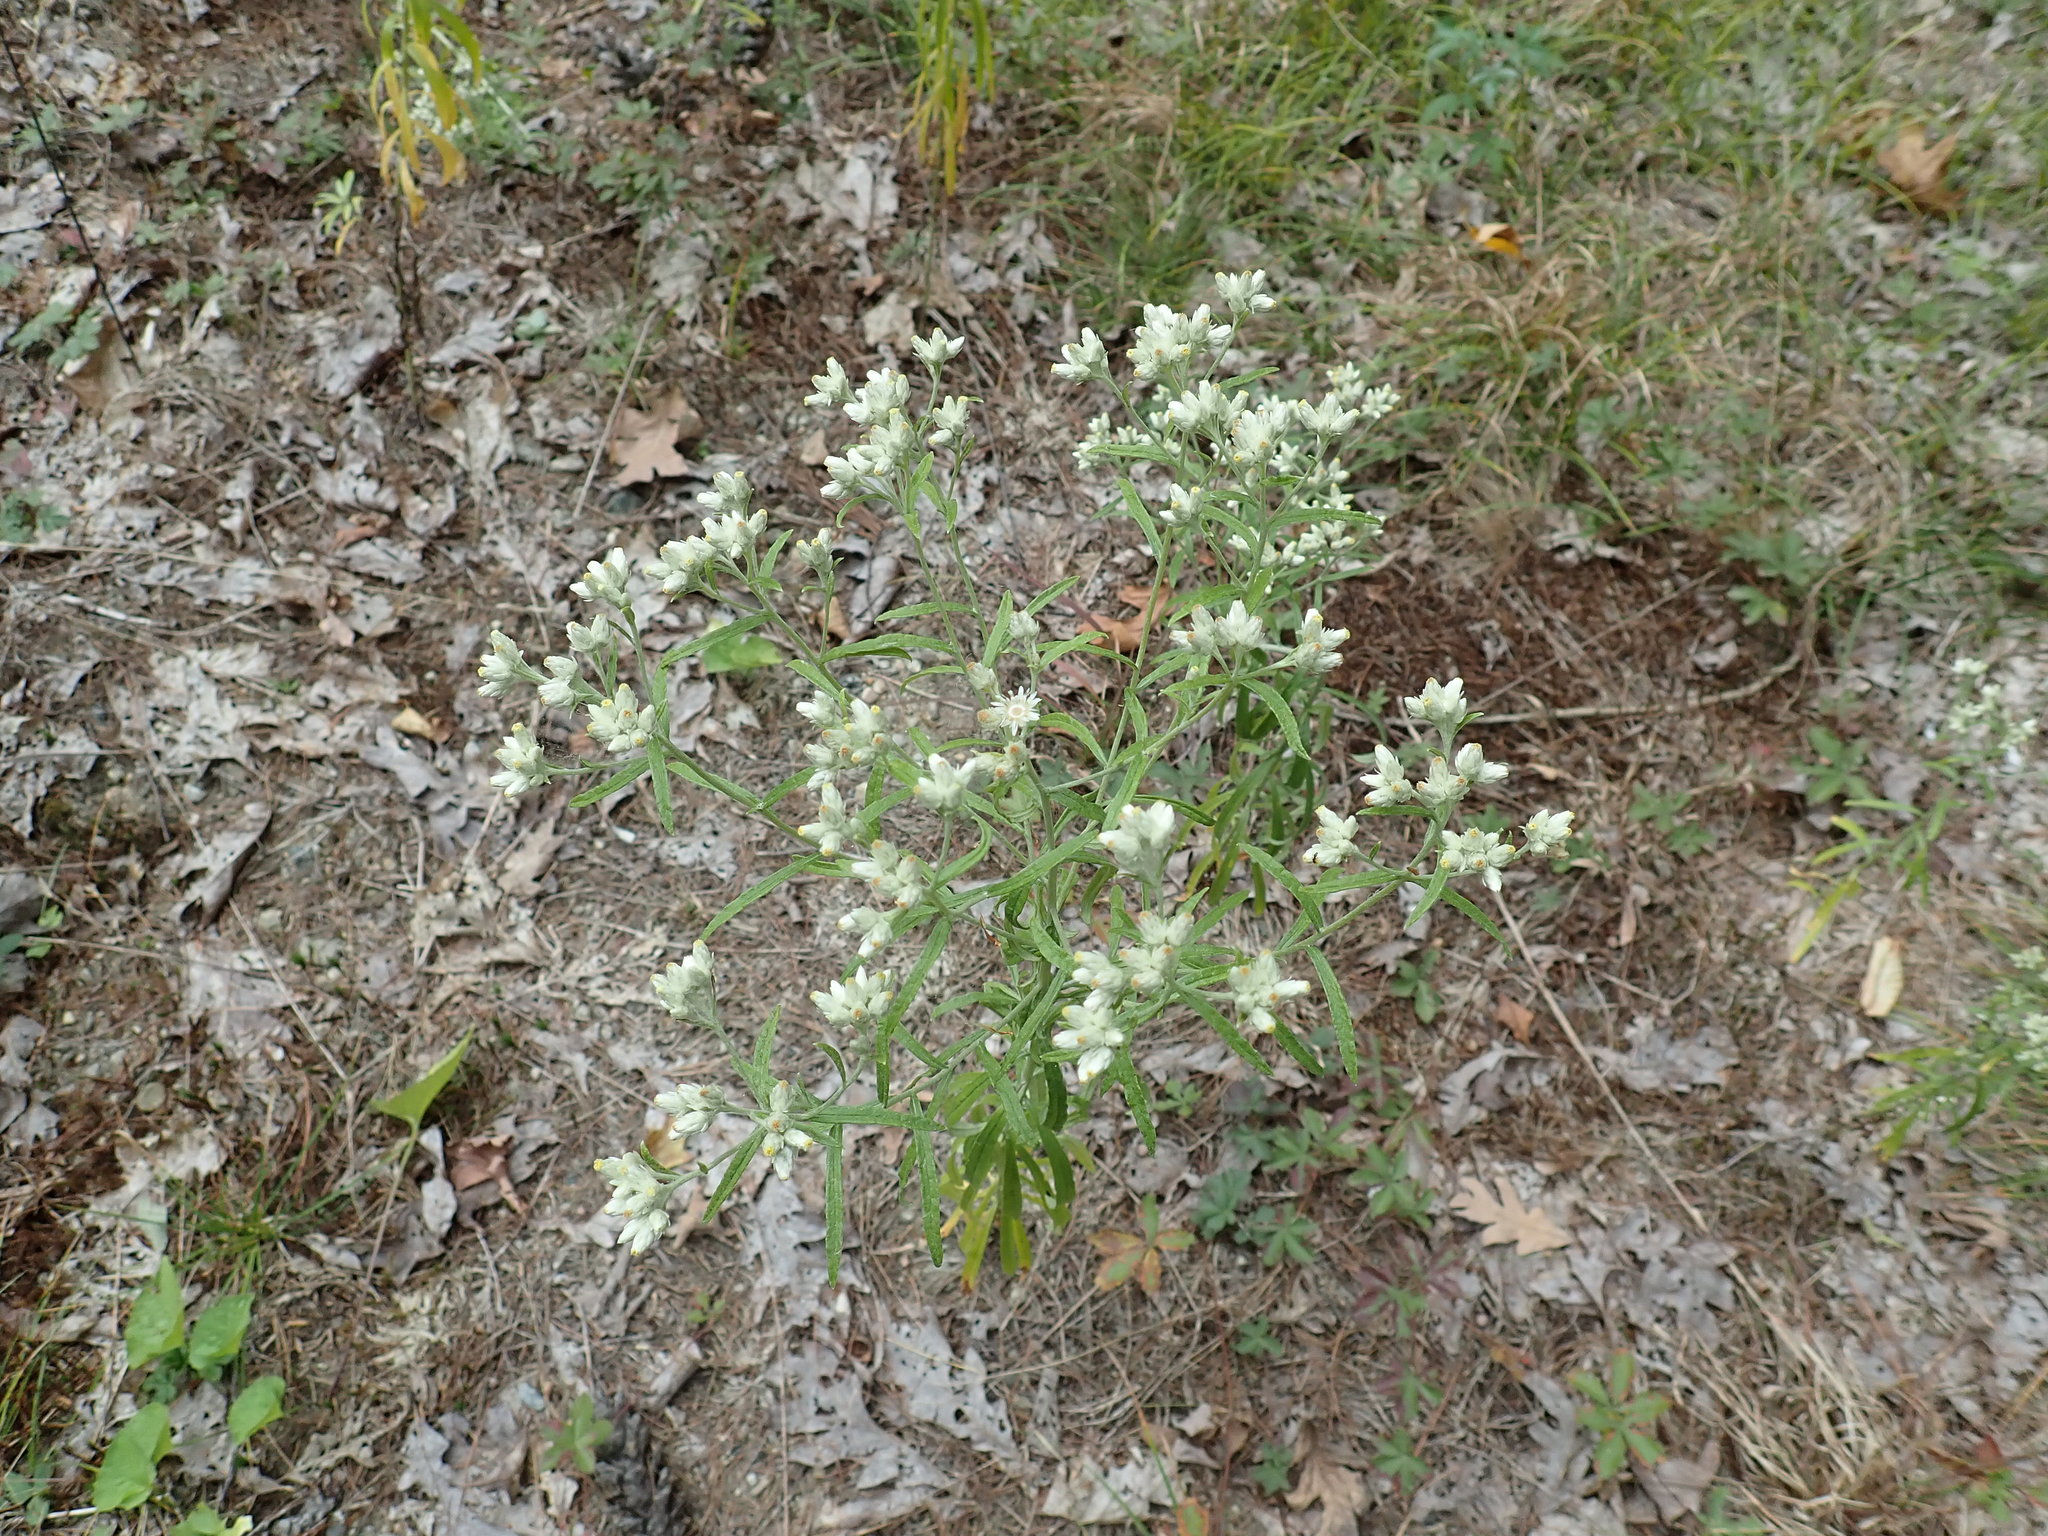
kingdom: Plantae
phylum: Tracheophyta
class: Magnoliopsida
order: Asterales
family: Asteraceae
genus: Pseudognaphalium
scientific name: Pseudognaphalium obtusifolium
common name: Eastern rabbit-tobacco
